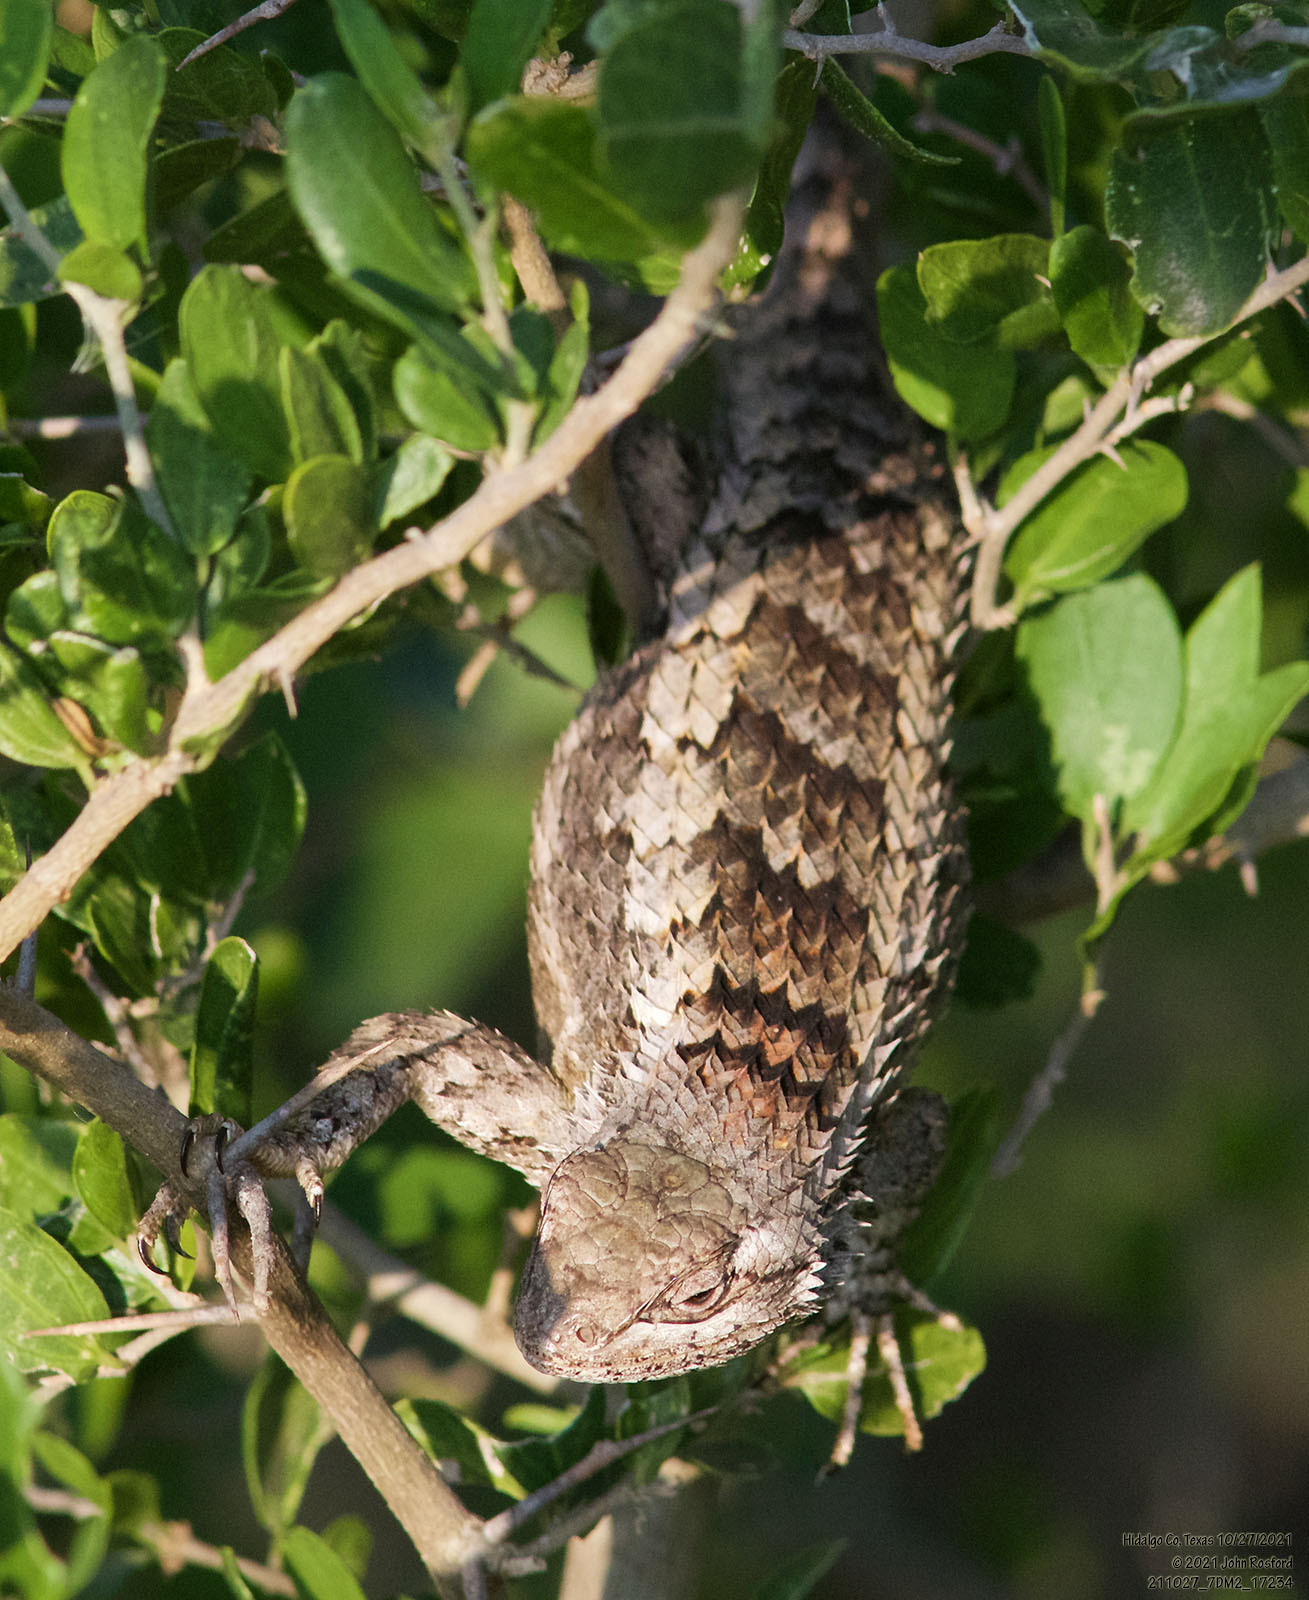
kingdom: Animalia
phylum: Chordata
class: Squamata
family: Phrynosomatidae
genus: Sceloporus
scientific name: Sceloporus olivaceus
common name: Texas spiny lizard
